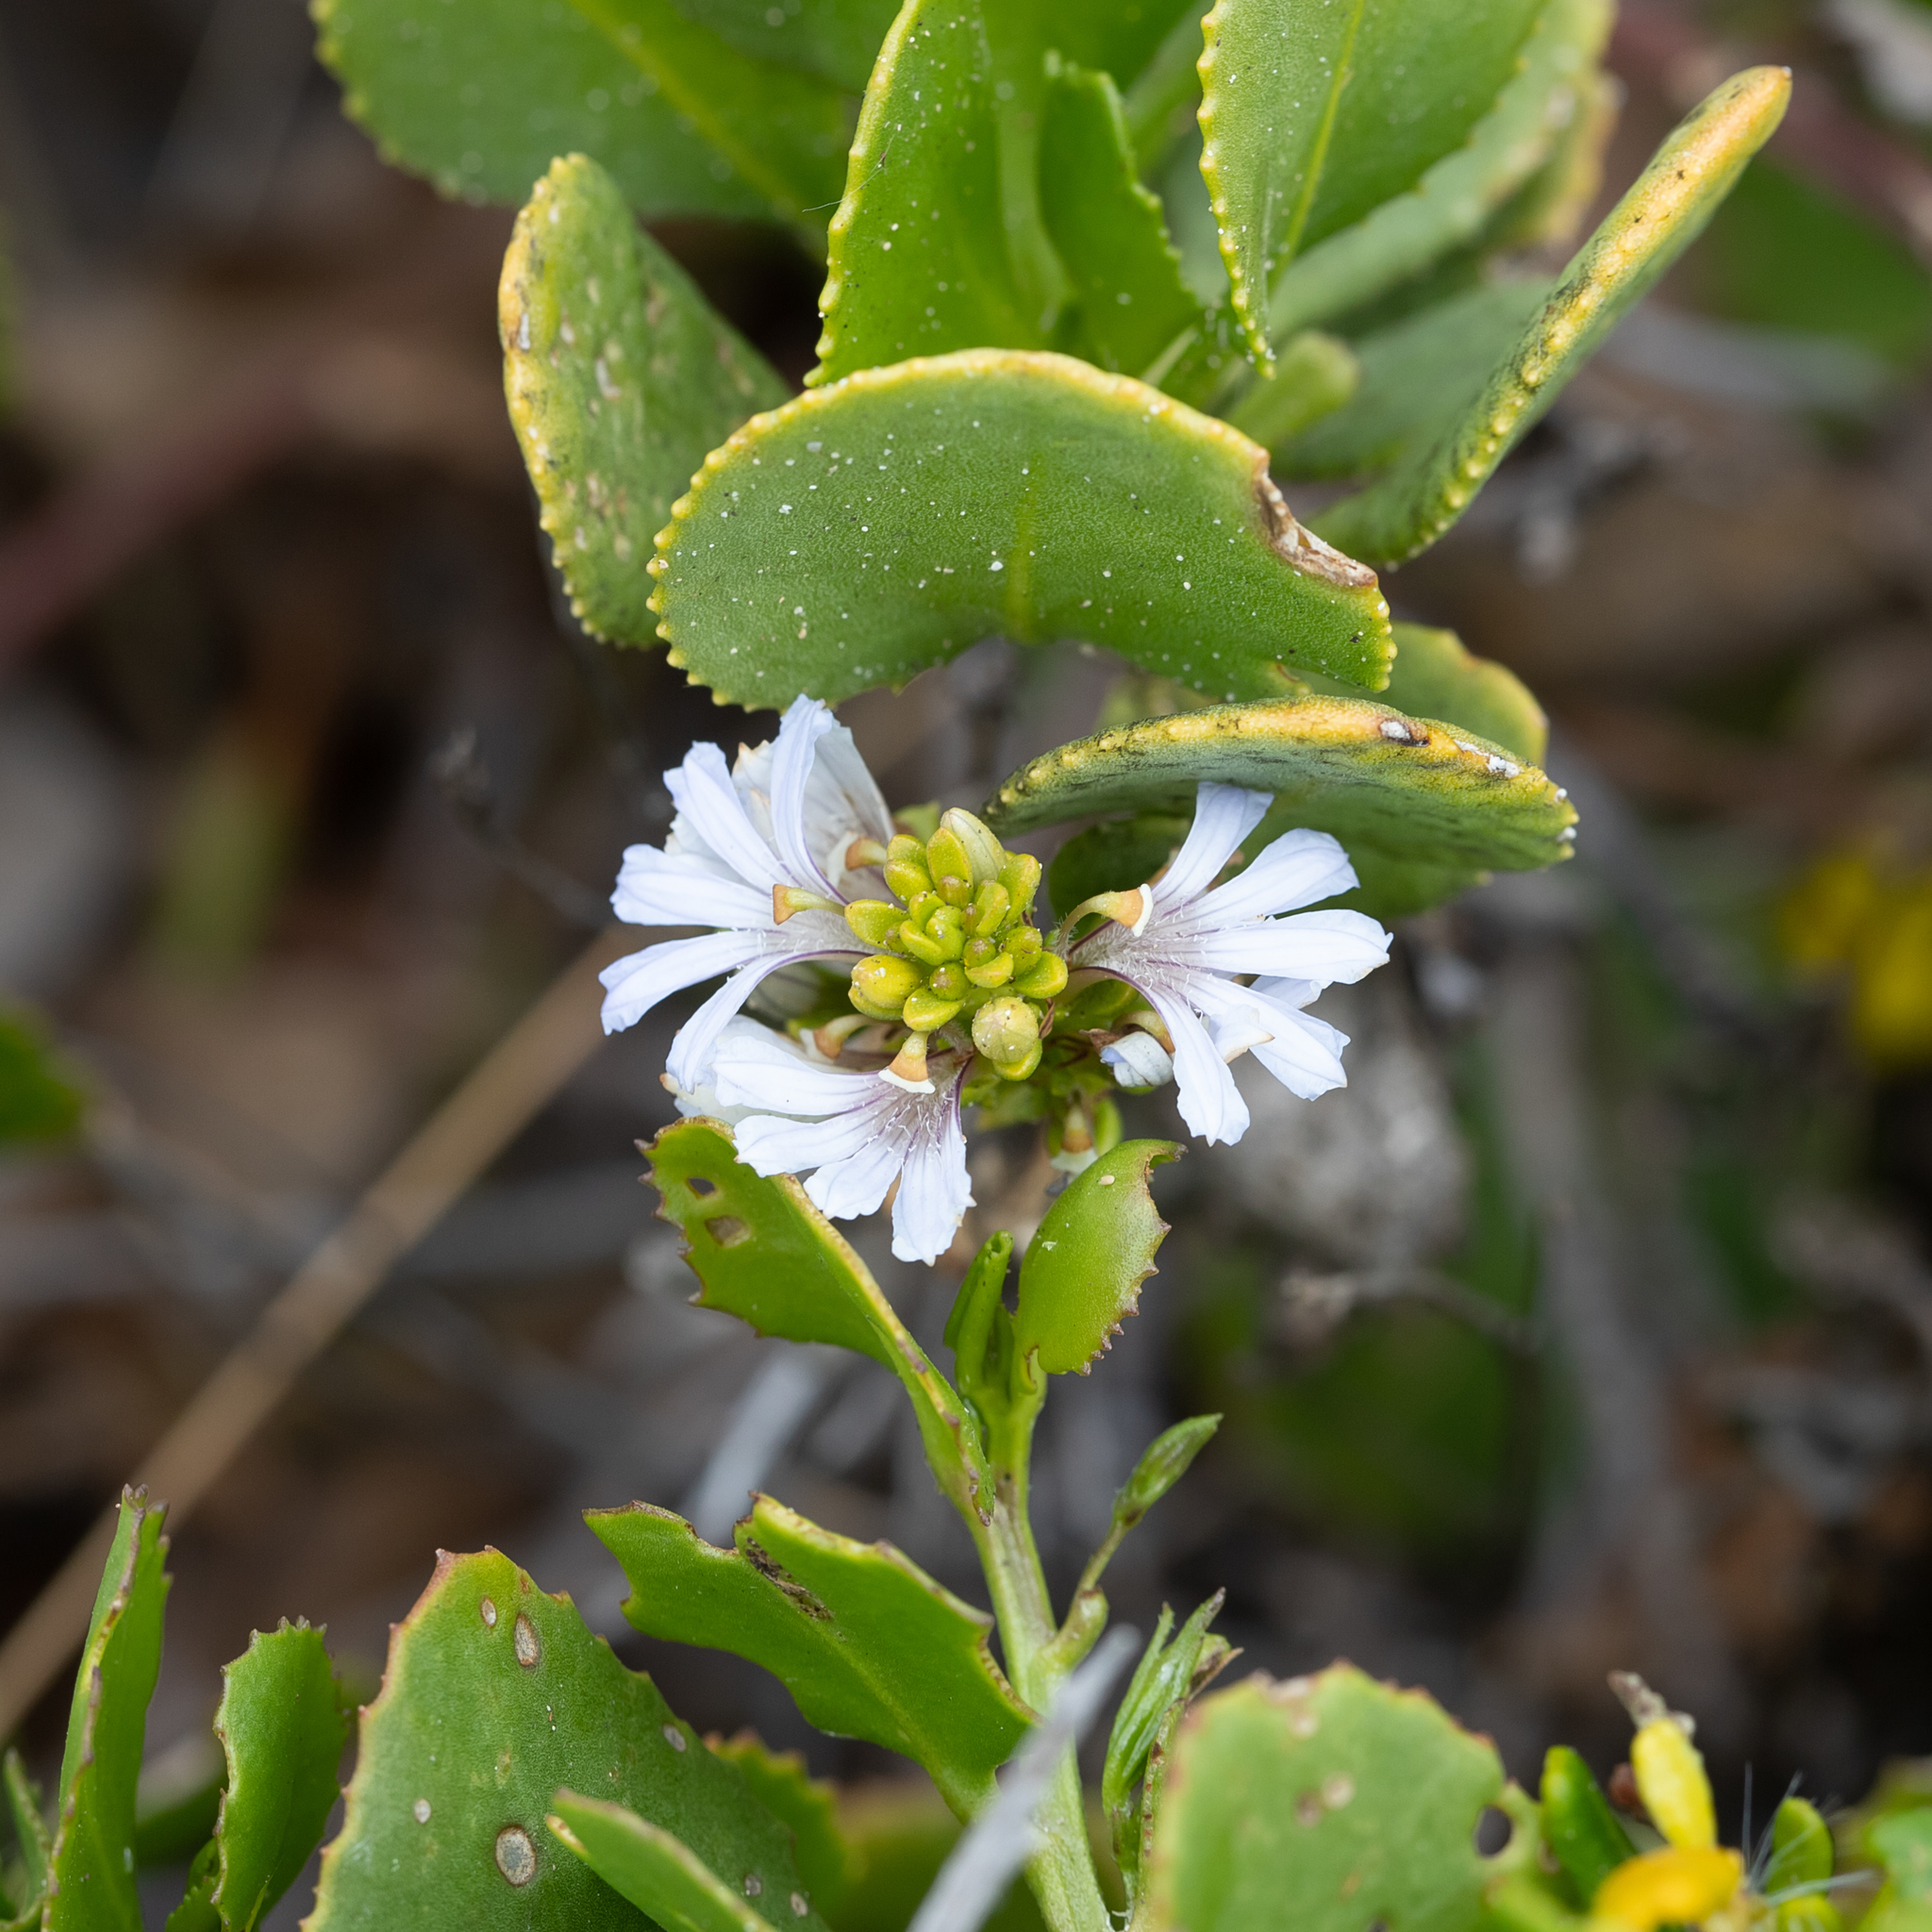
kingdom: Plantae
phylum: Tracheophyta
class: Magnoliopsida
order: Asterales
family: Goodeniaceae
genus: Scaevola
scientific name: Scaevola crassifolia
